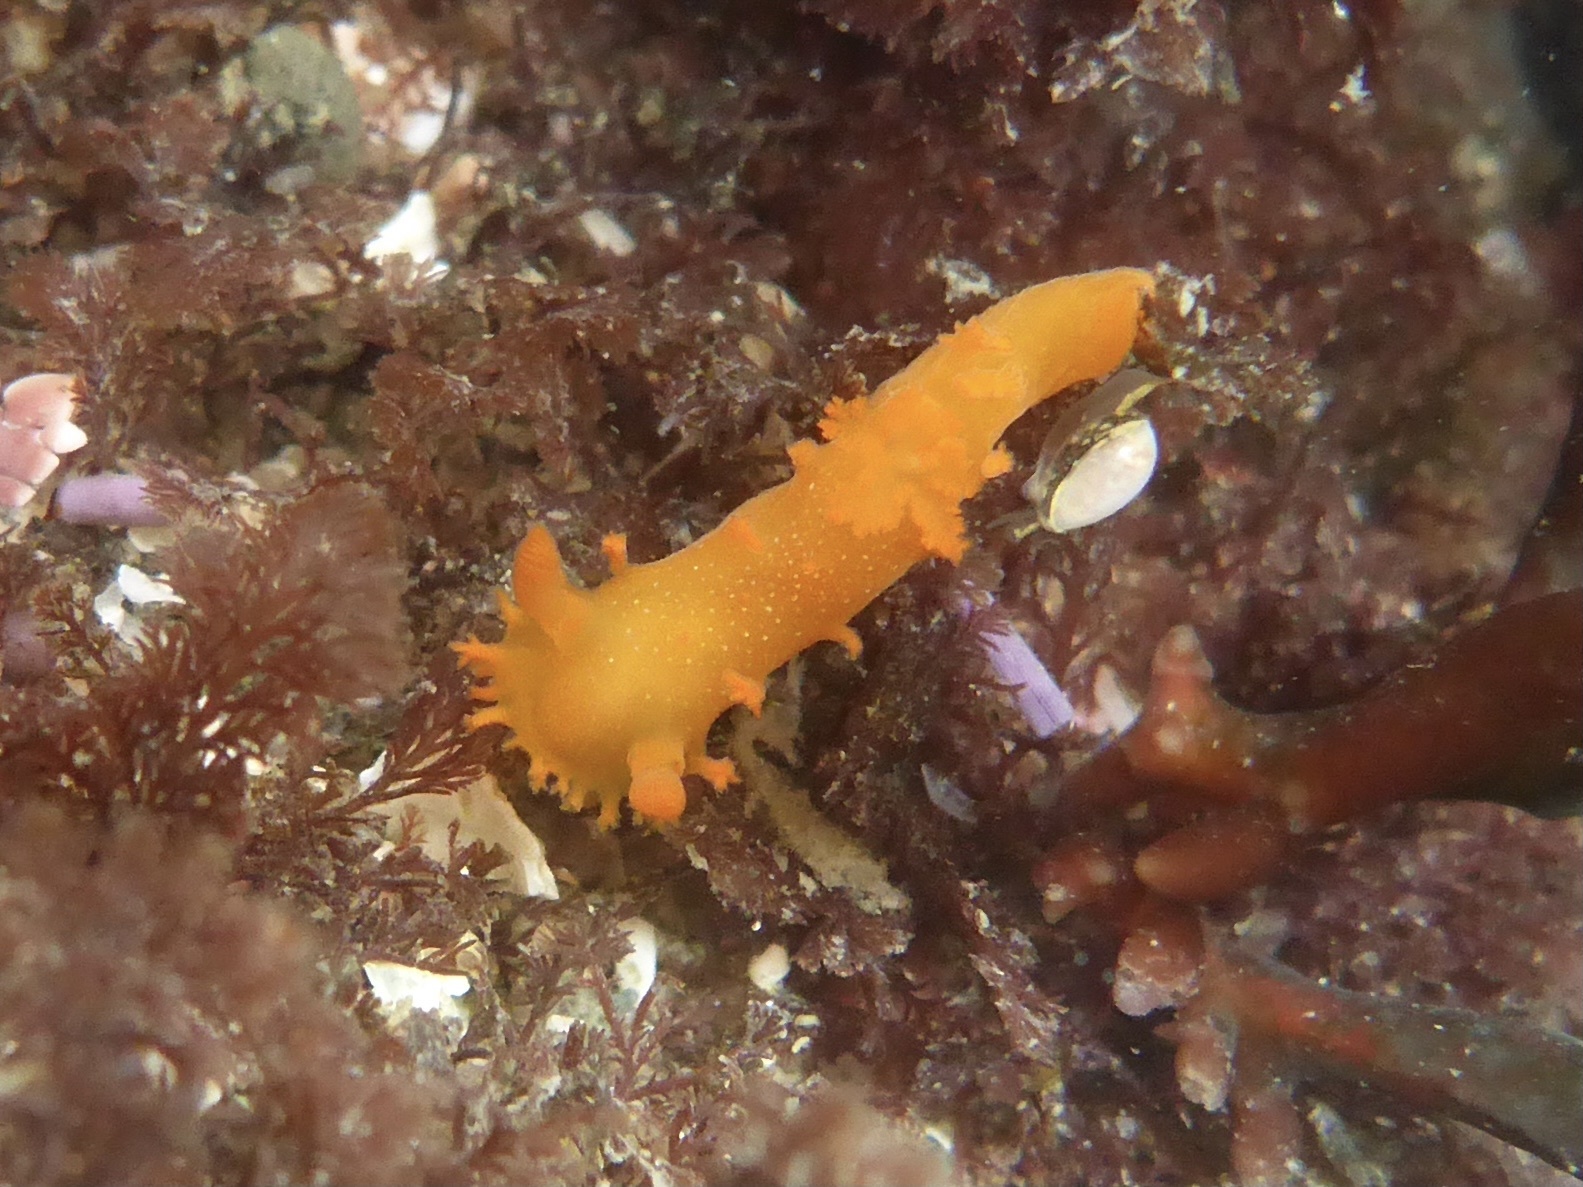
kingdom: Animalia
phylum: Mollusca
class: Gastropoda
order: Nudibranchia
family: Polyceridae
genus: Triopha
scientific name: Triopha maculata
